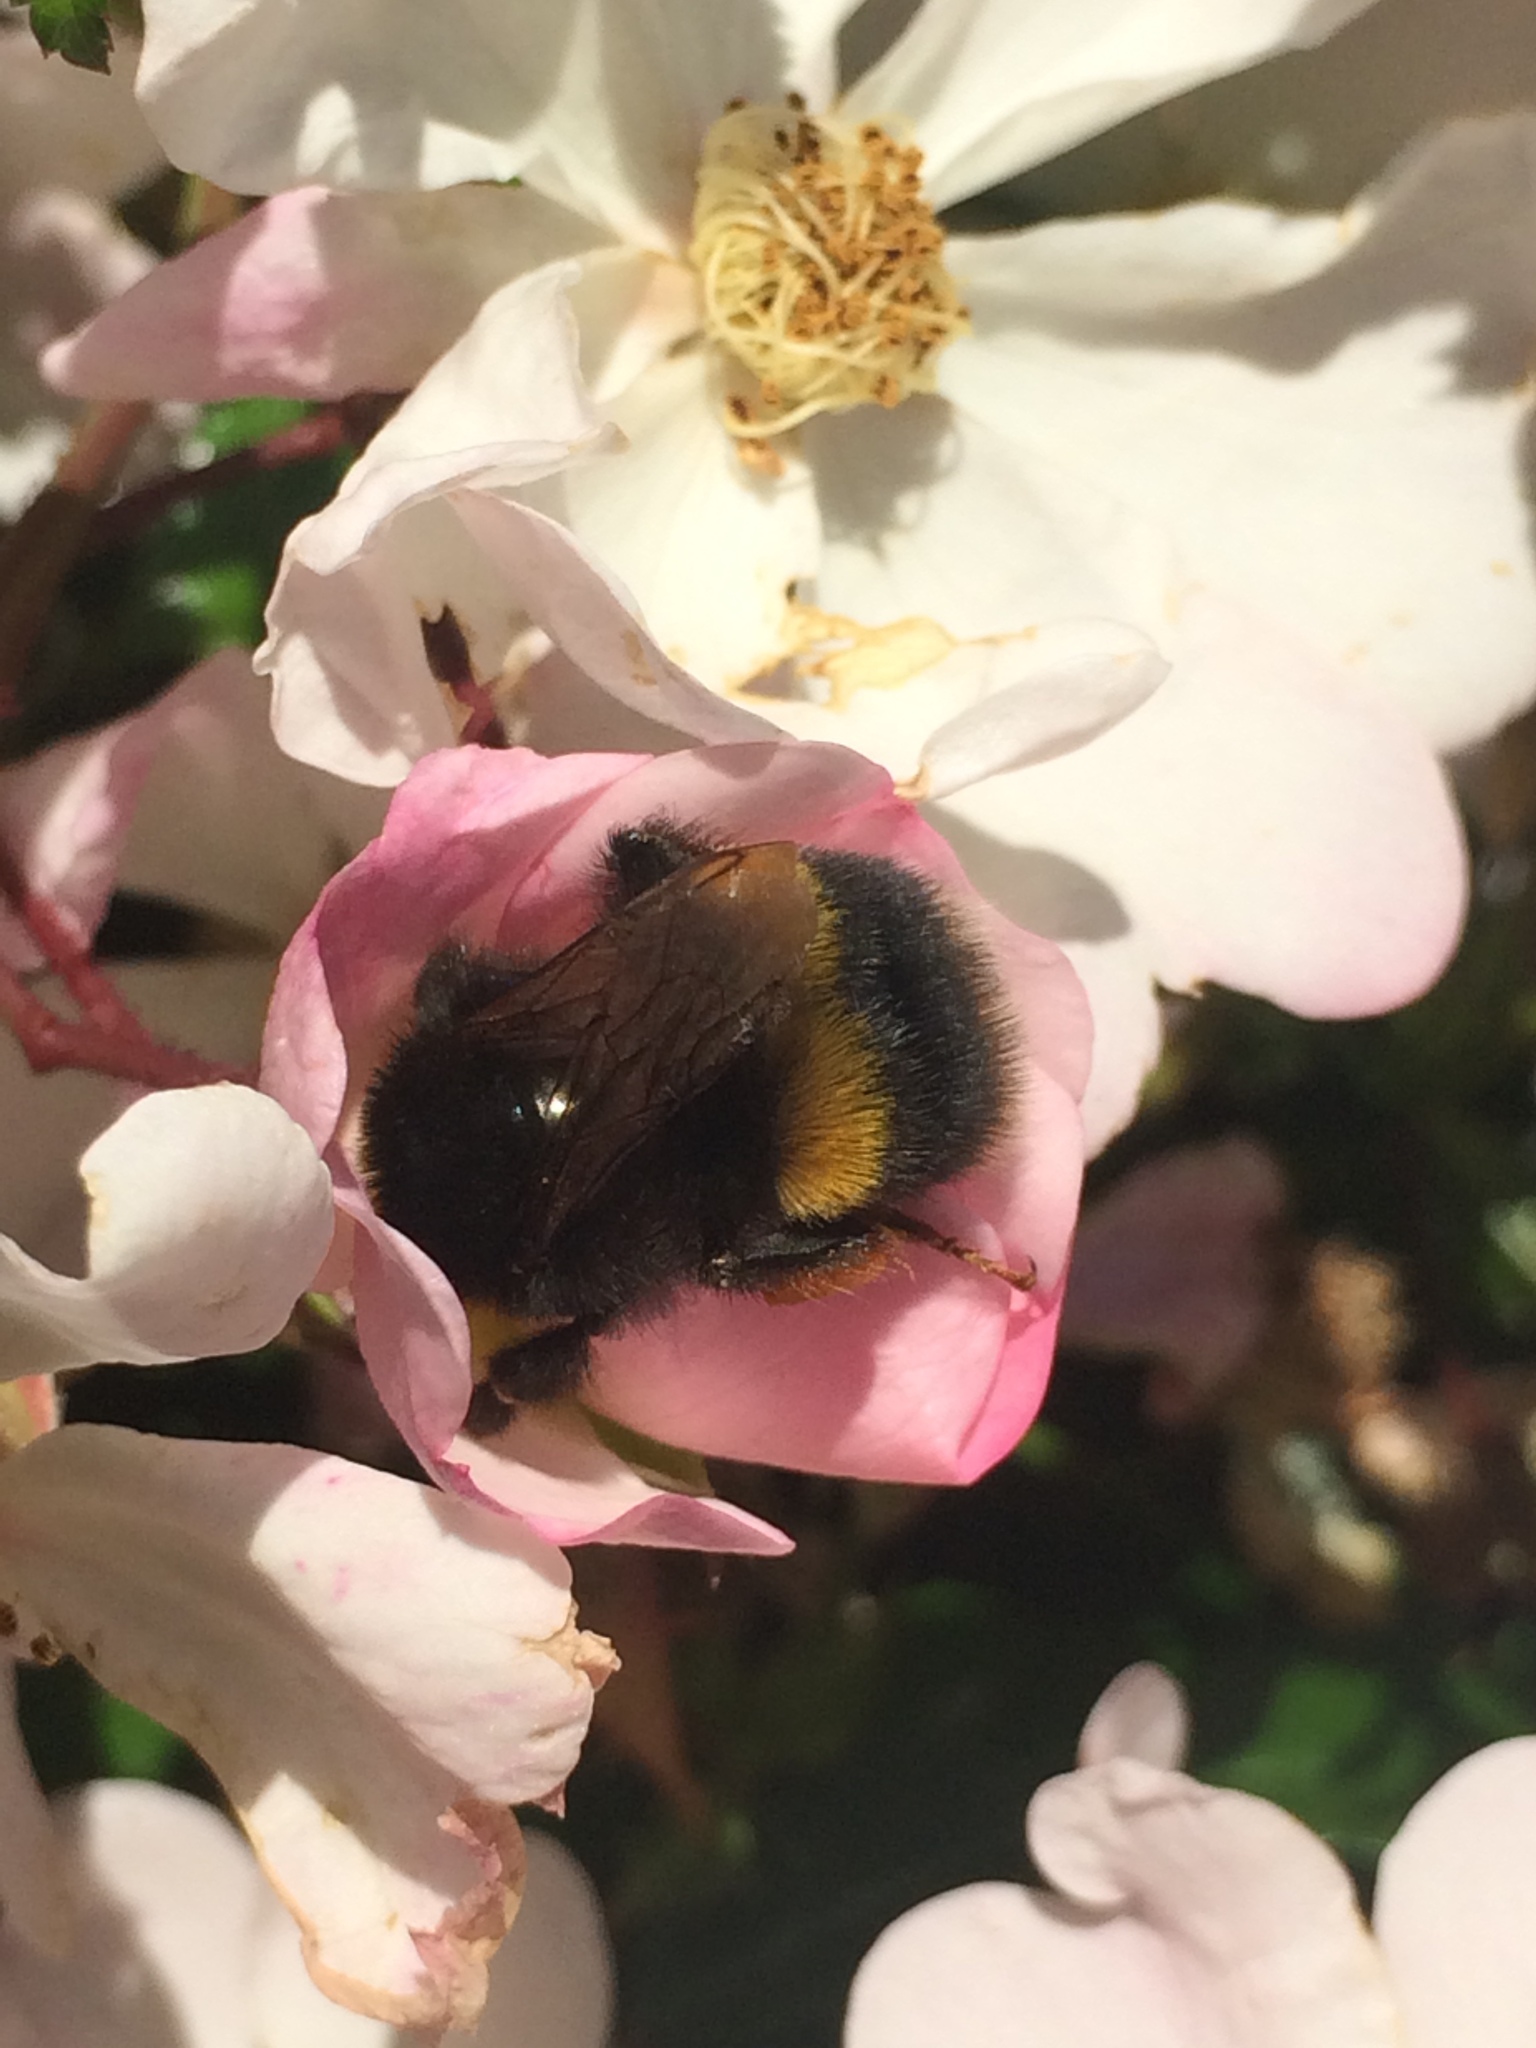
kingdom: Animalia
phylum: Arthropoda
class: Insecta
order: Hymenoptera
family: Apidae
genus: Bombus
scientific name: Bombus terrestris
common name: Buff-tailed bumblebee
